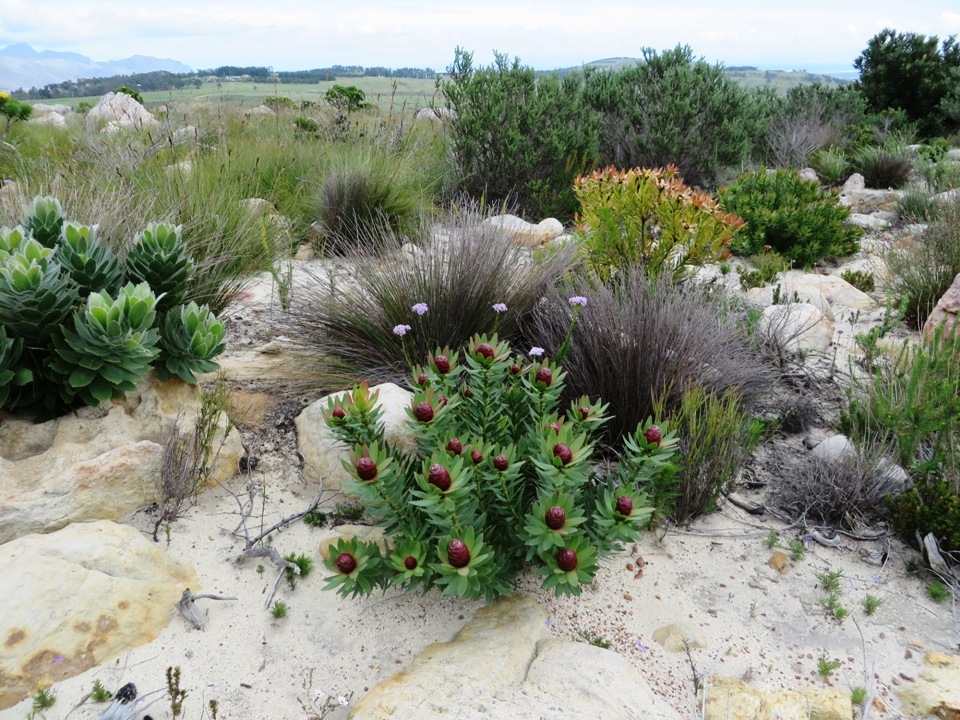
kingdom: Plantae
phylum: Tracheophyta
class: Magnoliopsida
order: Proteales
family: Proteaceae
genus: Leucadendron
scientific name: Leucadendron sessile
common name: Western sunbush
